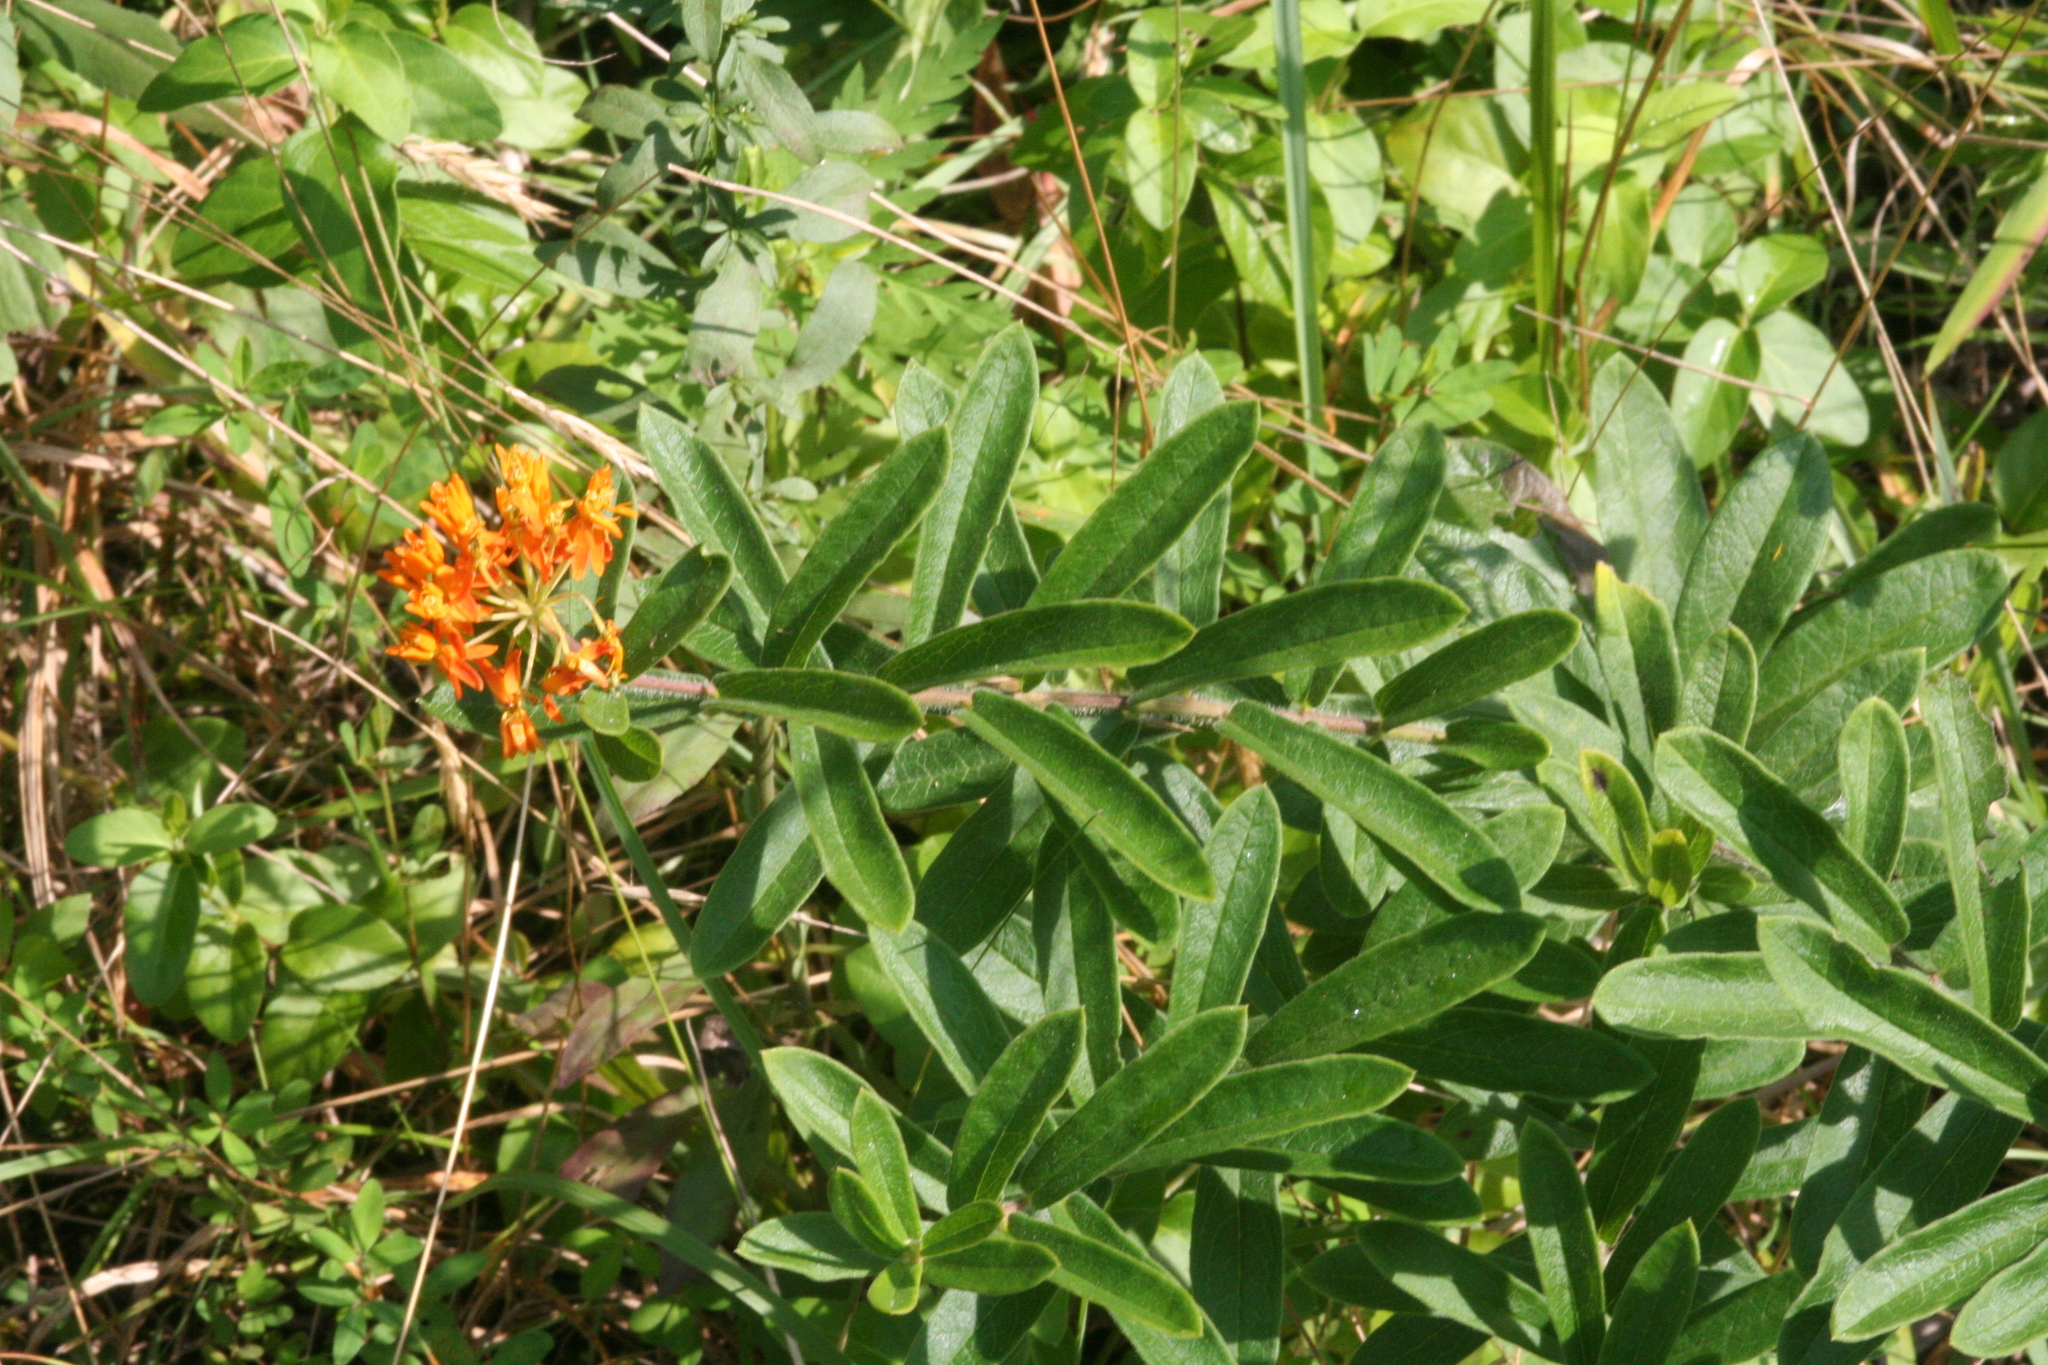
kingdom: Plantae
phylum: Tracheophyta
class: Magnoliopsida
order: Gentianales
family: Apocynaceae
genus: Asclepias
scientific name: Asclepias tuberosa
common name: Butterfly milkweed
